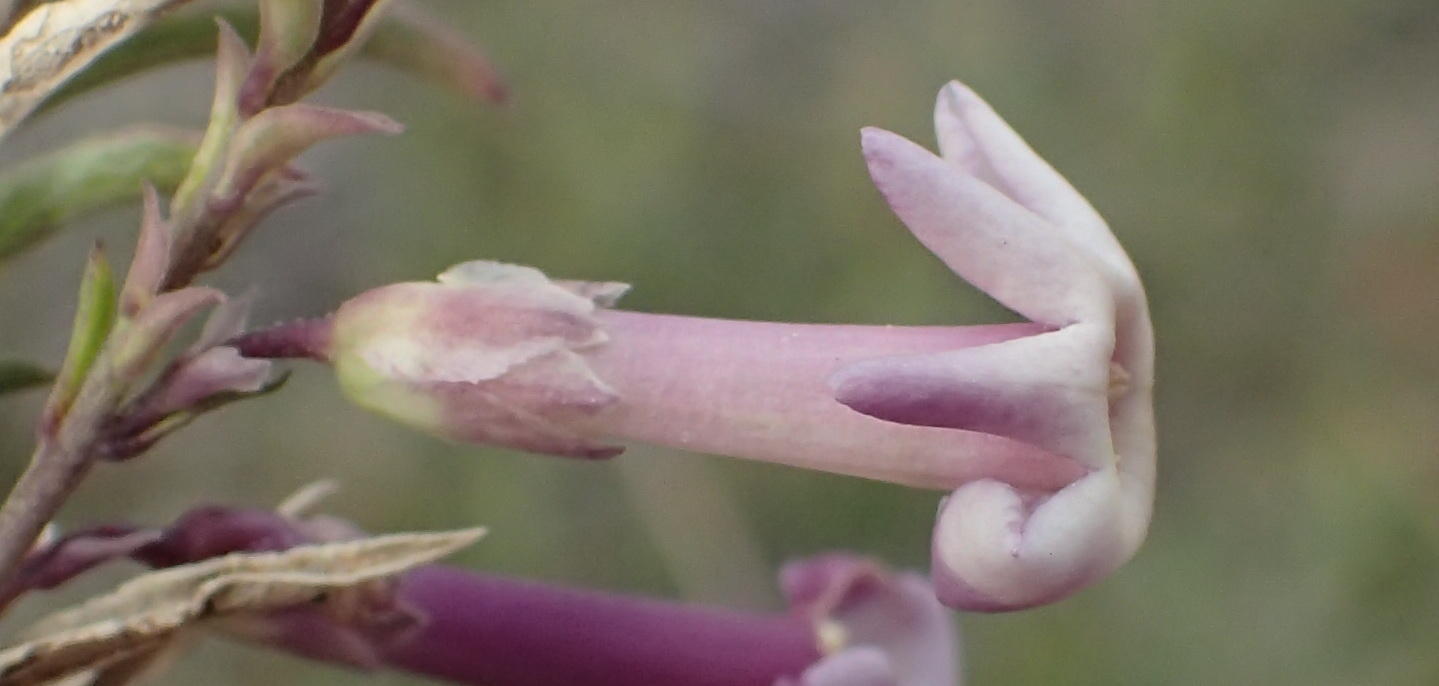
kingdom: Plantae
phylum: Tracheophyta
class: Magnoliopsida
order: Lamiales
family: Scrophulariaceae
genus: Freylinia
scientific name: Freylinia densiflora
